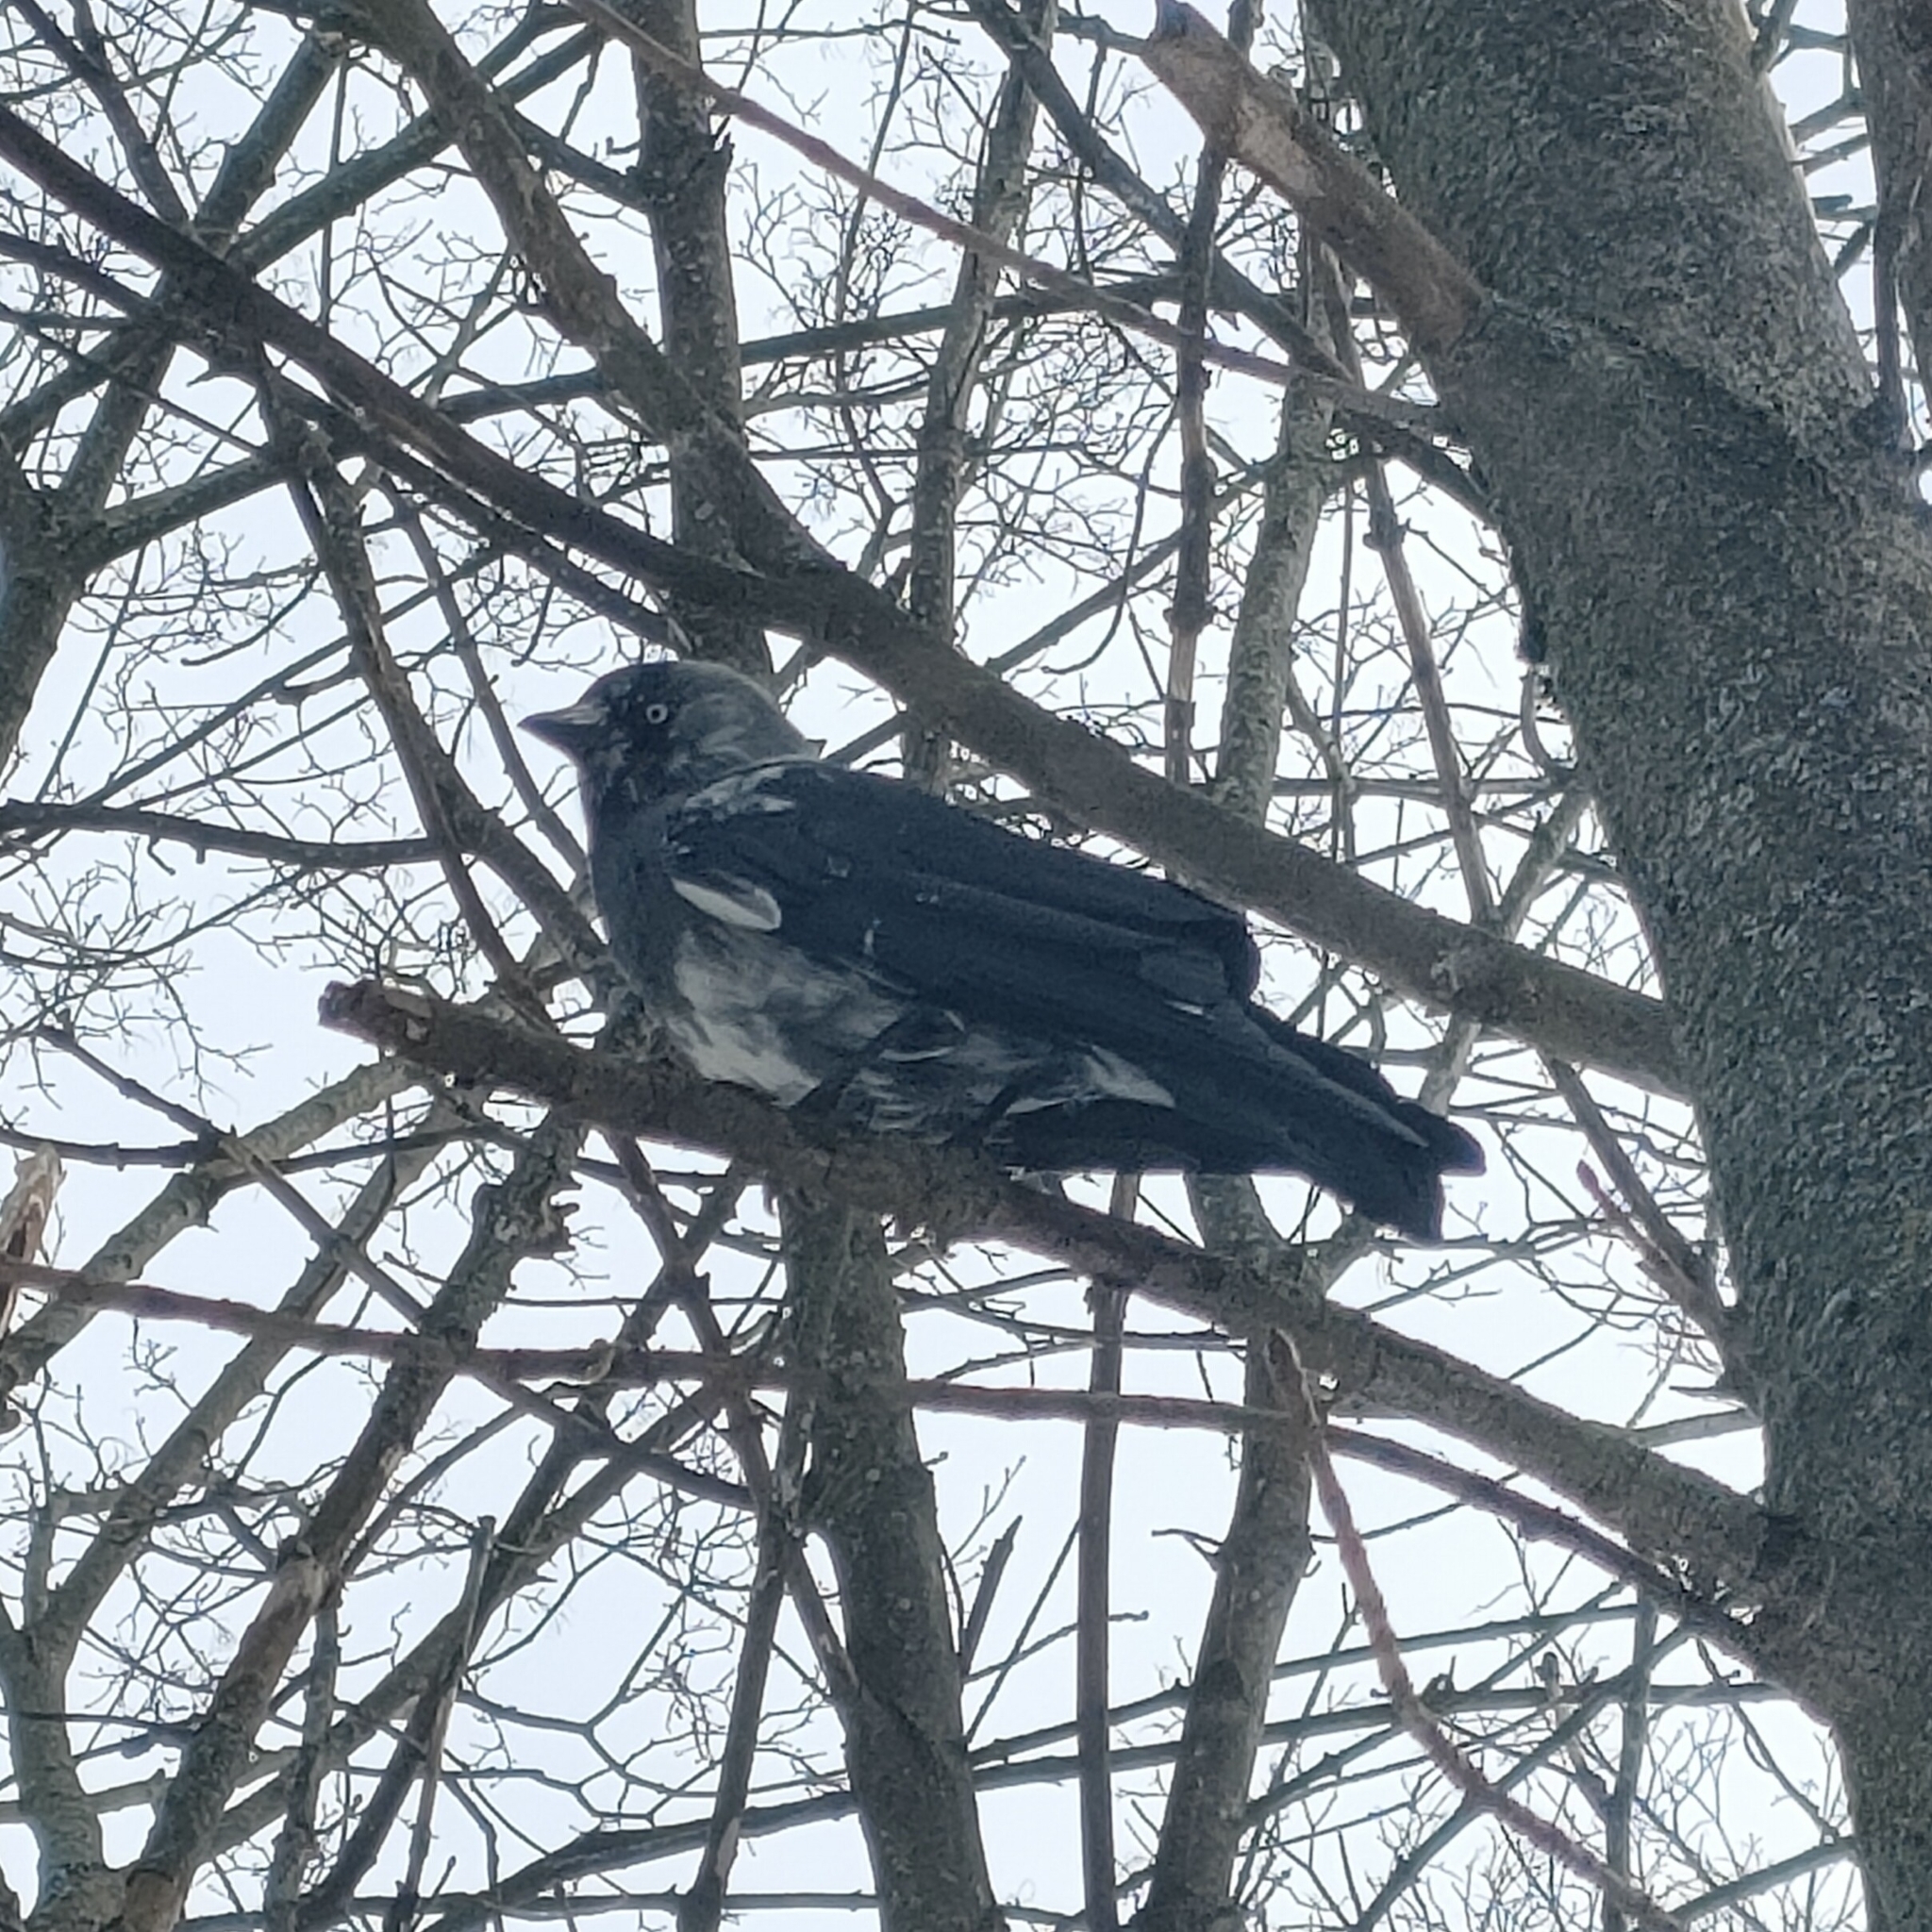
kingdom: Animalia
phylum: Chordata
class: Aves
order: Passeriformes
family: Corvidae
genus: Coloeus
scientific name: Coloeus monedula
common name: Western jackdaw
